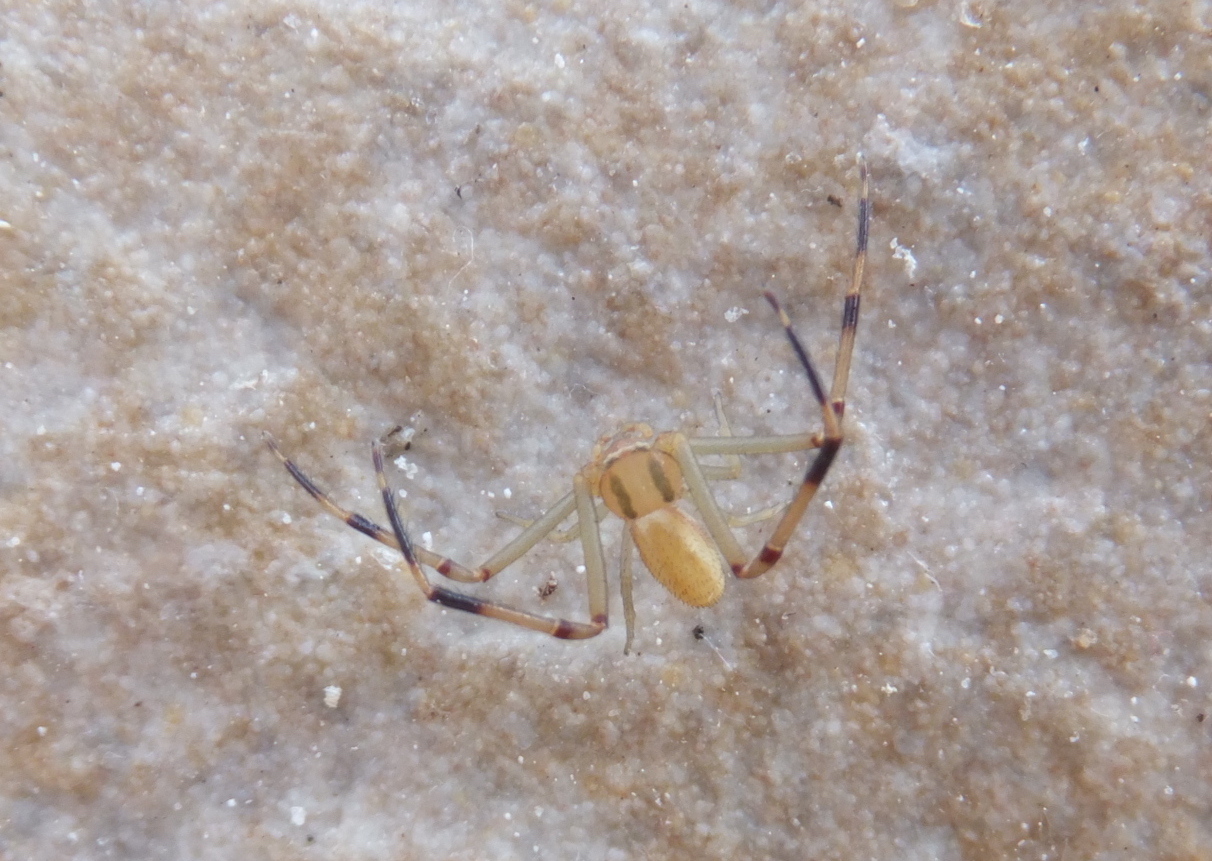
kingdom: Animalia
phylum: Arthropoda
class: Arachnida
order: Araneae
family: Thomisidae
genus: Runcinia
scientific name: Runcinia grammica
